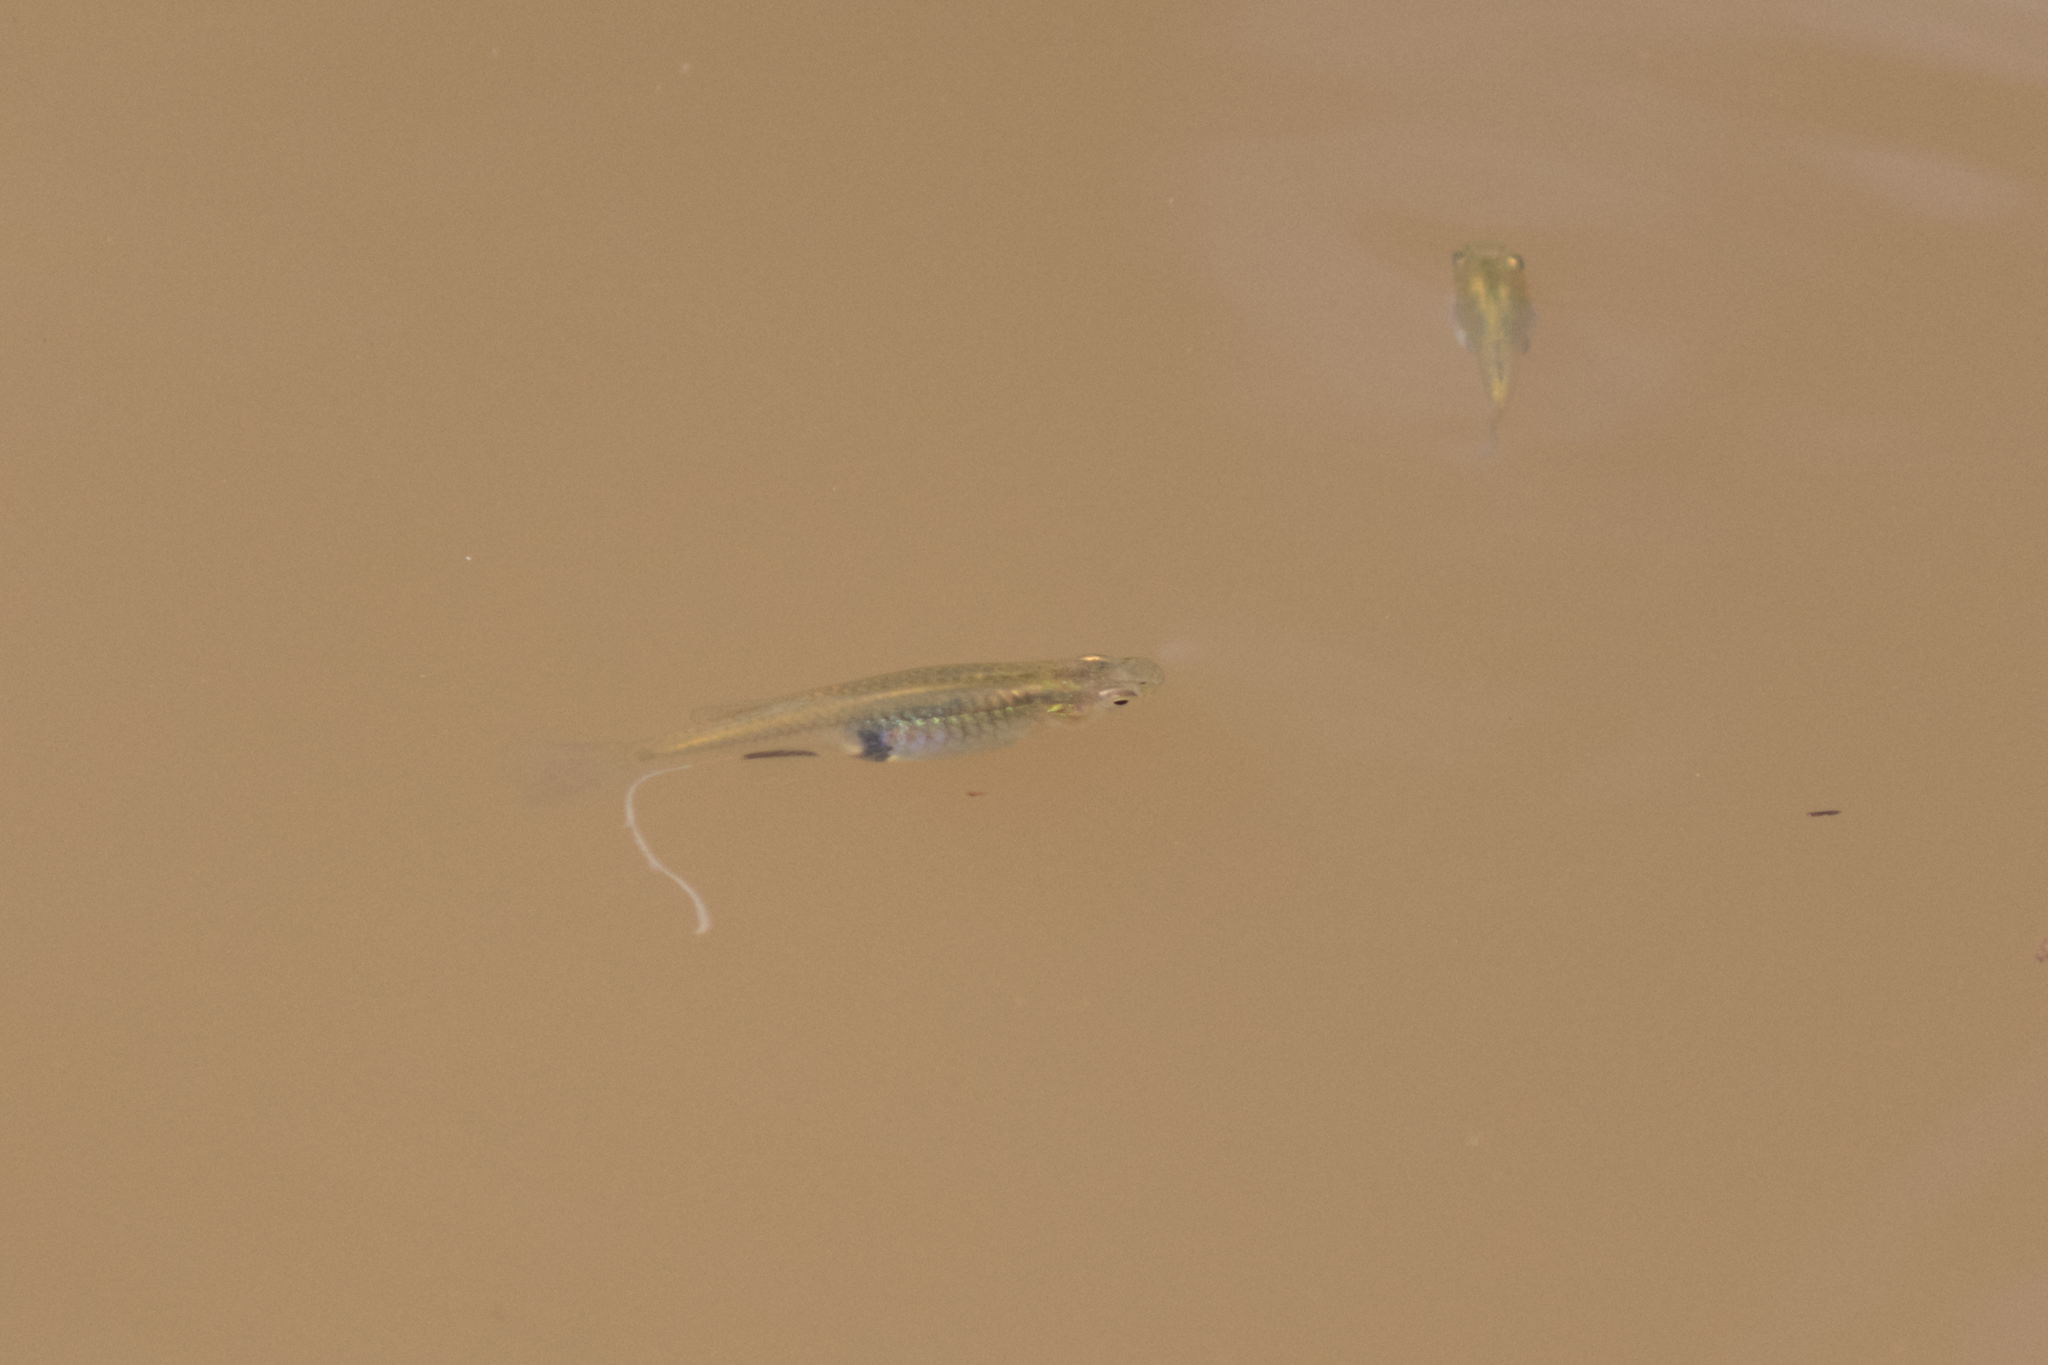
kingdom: Animalia
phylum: Chordata
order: Cyprinodontiformes
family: Poeciliidae
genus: Gambusia
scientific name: Gambusia holbrooki
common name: Eastern mosquitofish
